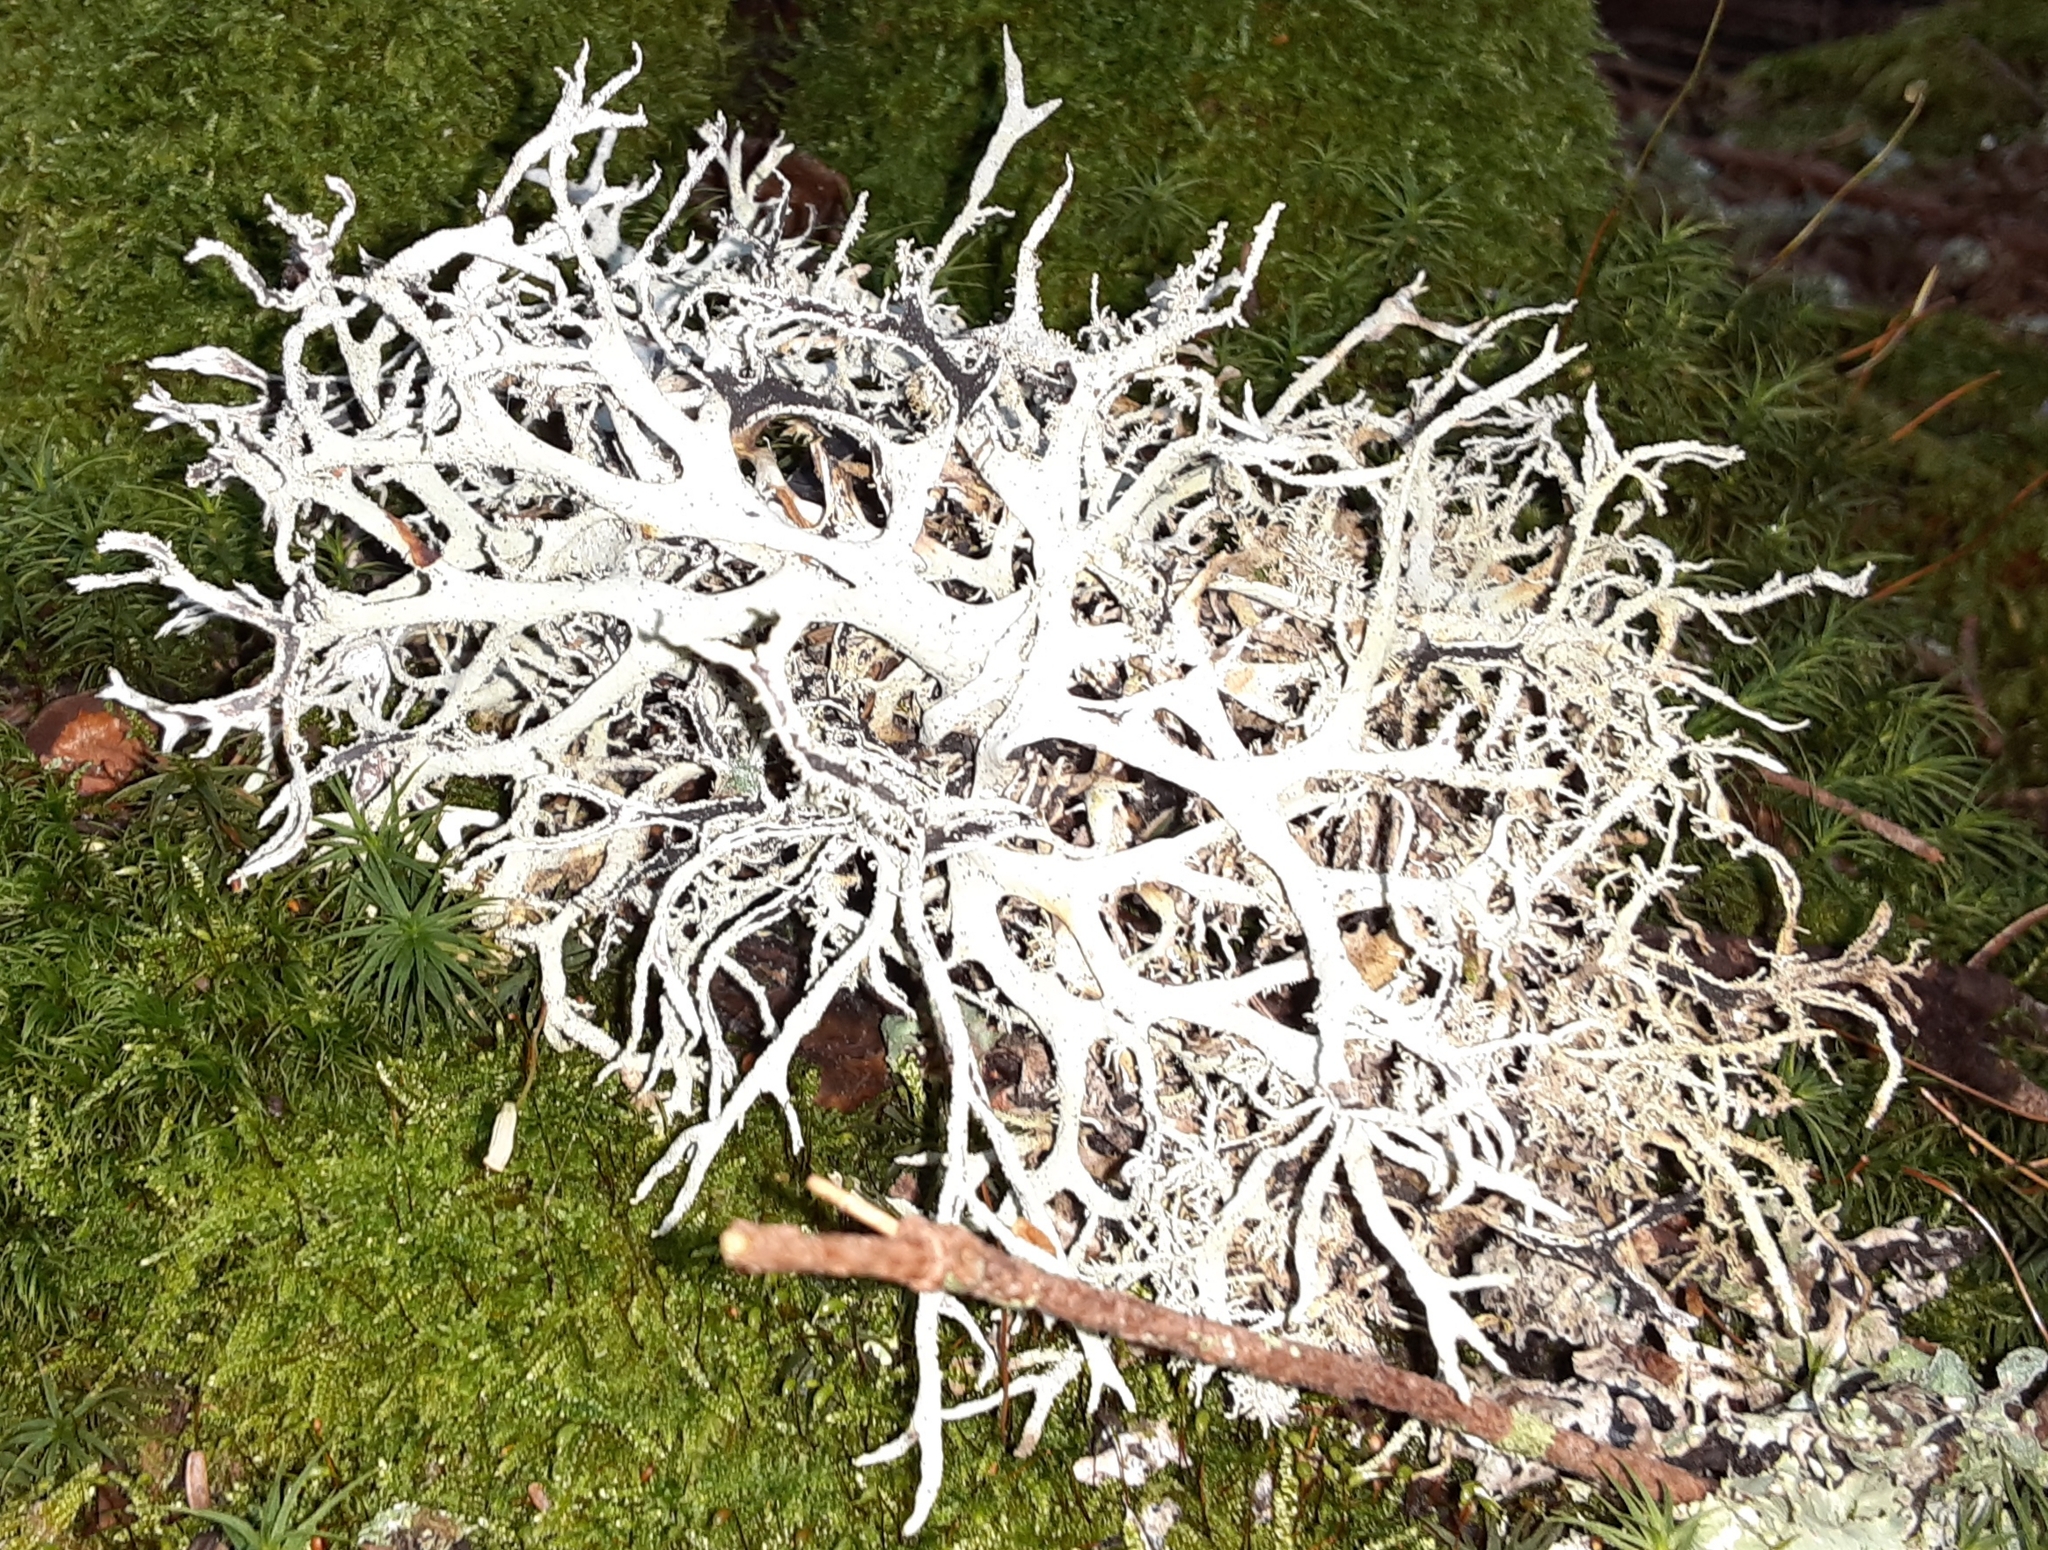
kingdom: Fungi
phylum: Ascomycota
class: Lecanoromycetes
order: Lecanorales
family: Parmeliaceae
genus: Pseudevernia
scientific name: Pseudevernia consocians
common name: Common antler lichen
